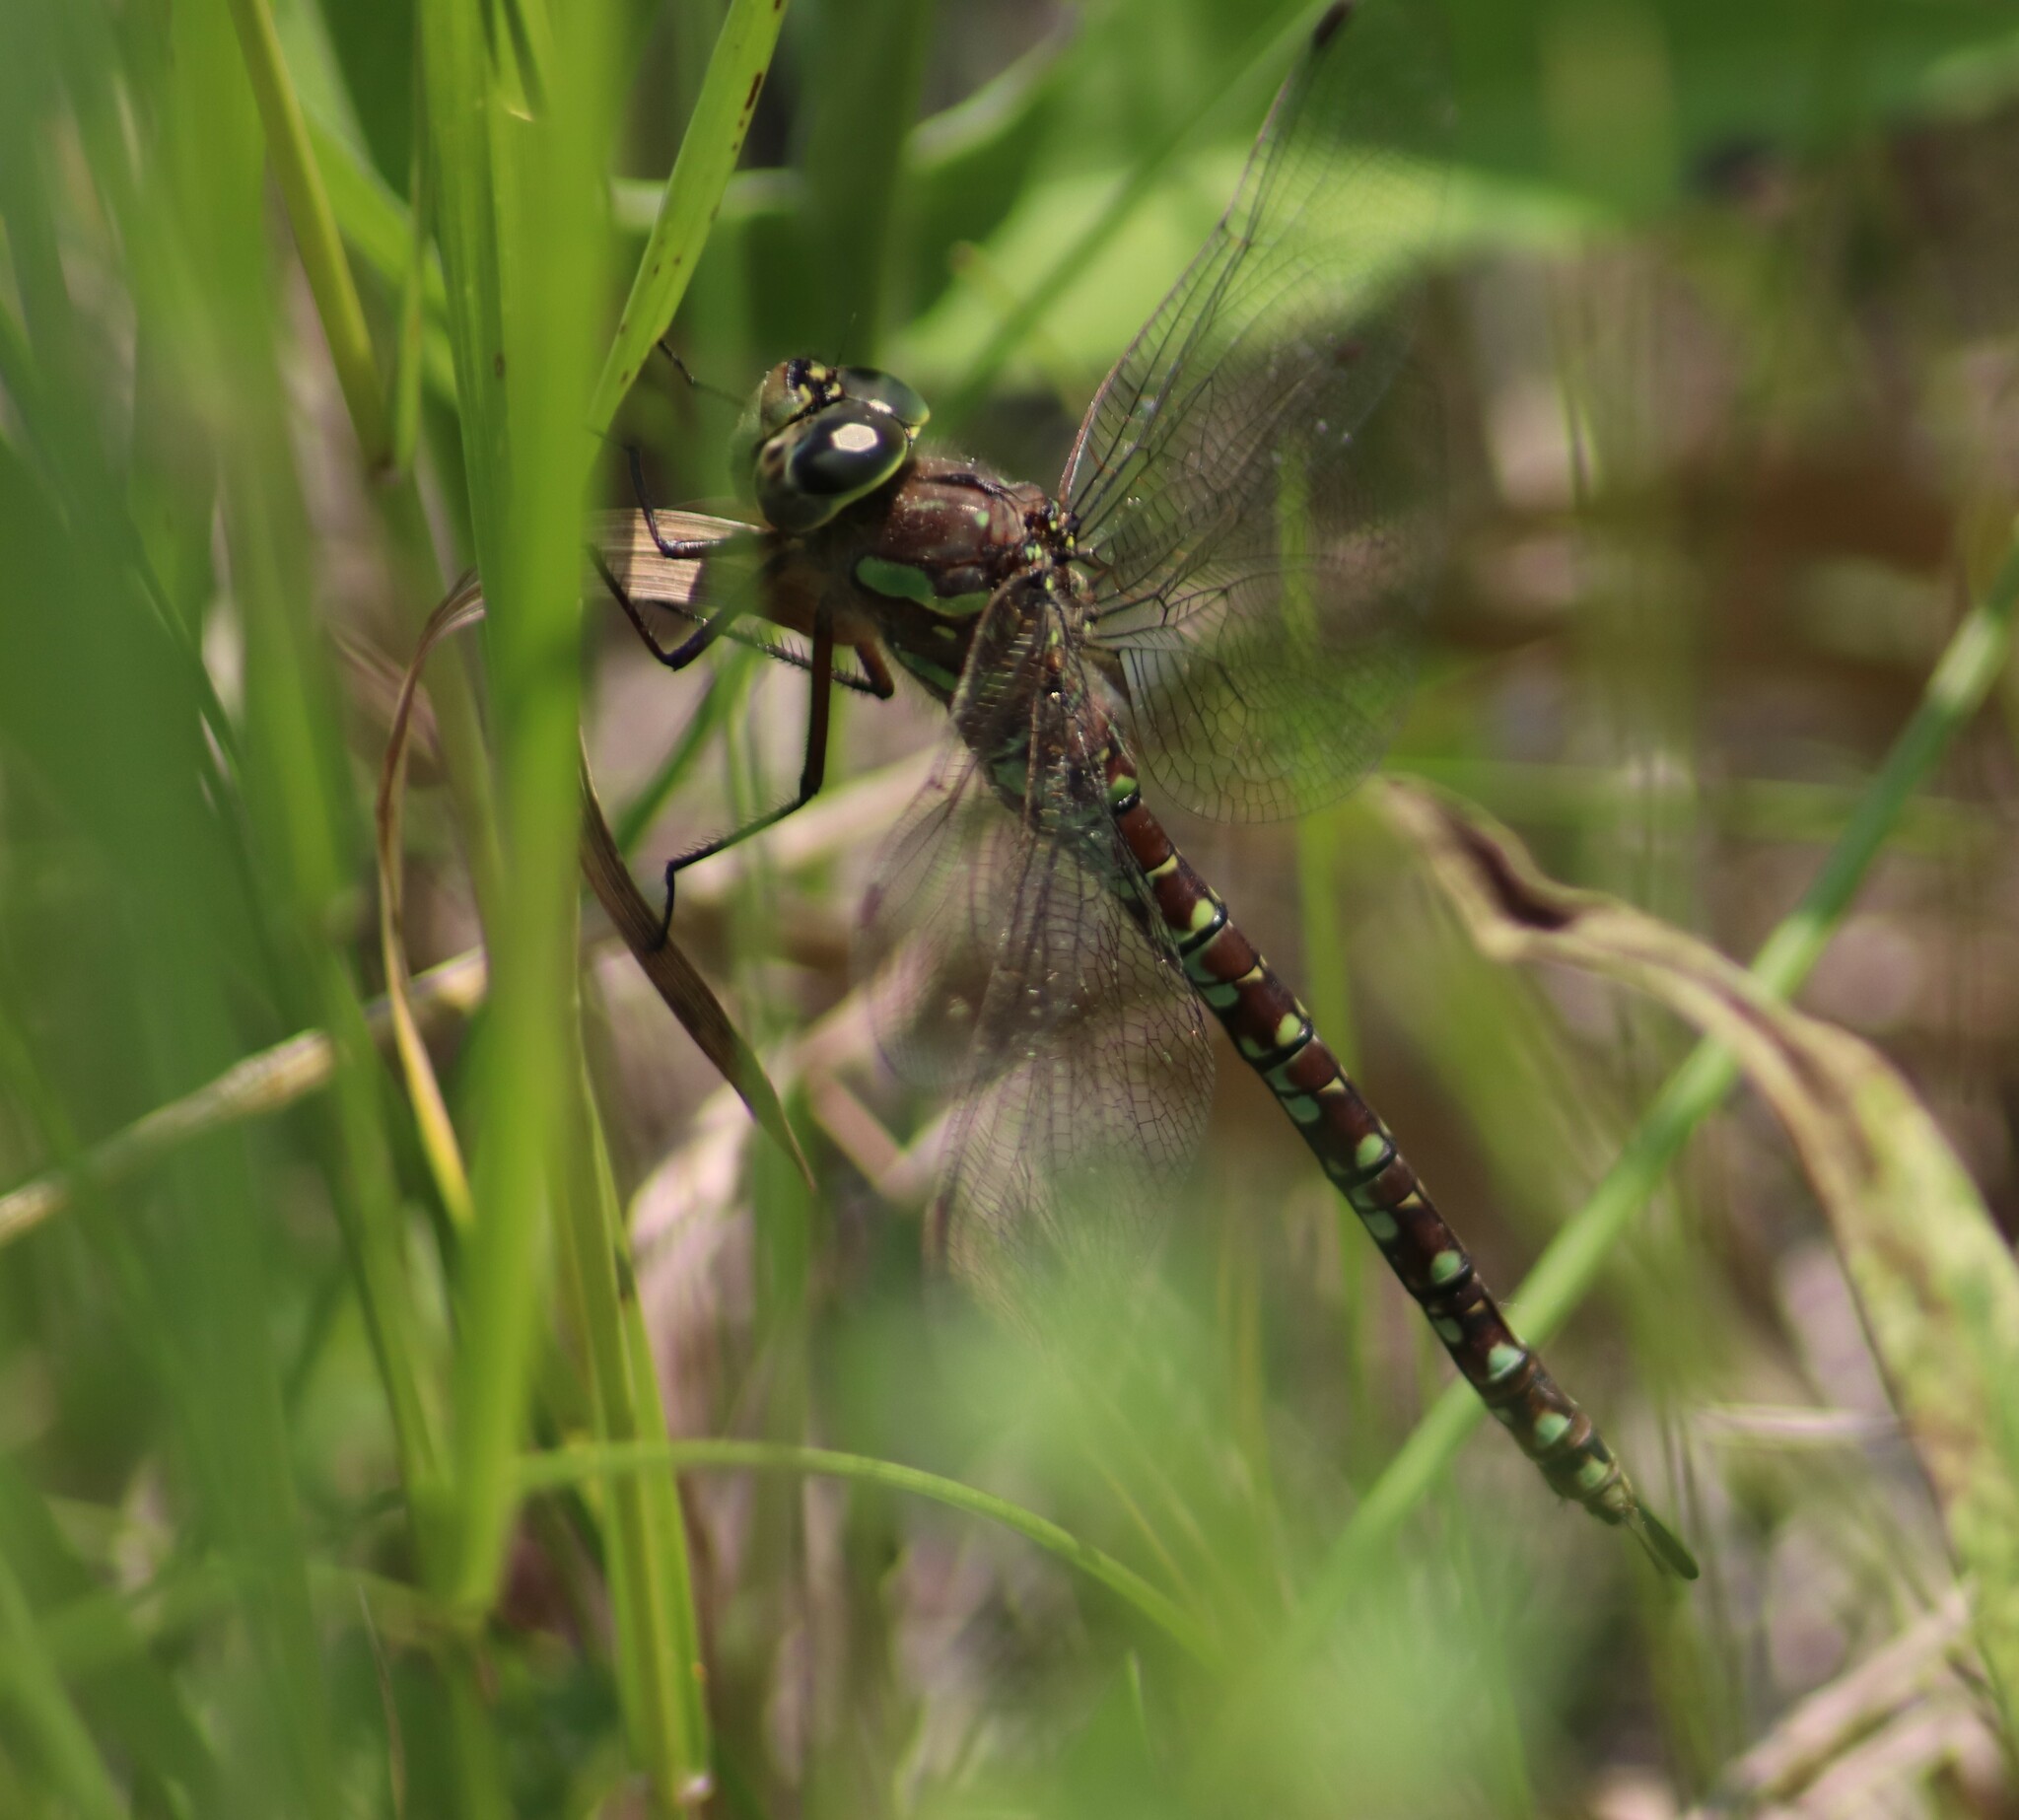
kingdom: Animalia
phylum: Arthropoda
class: Insecta
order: Odonata
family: Aeshnidae
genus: Aeshna
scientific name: Aeshna canadensis
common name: Canada darner
